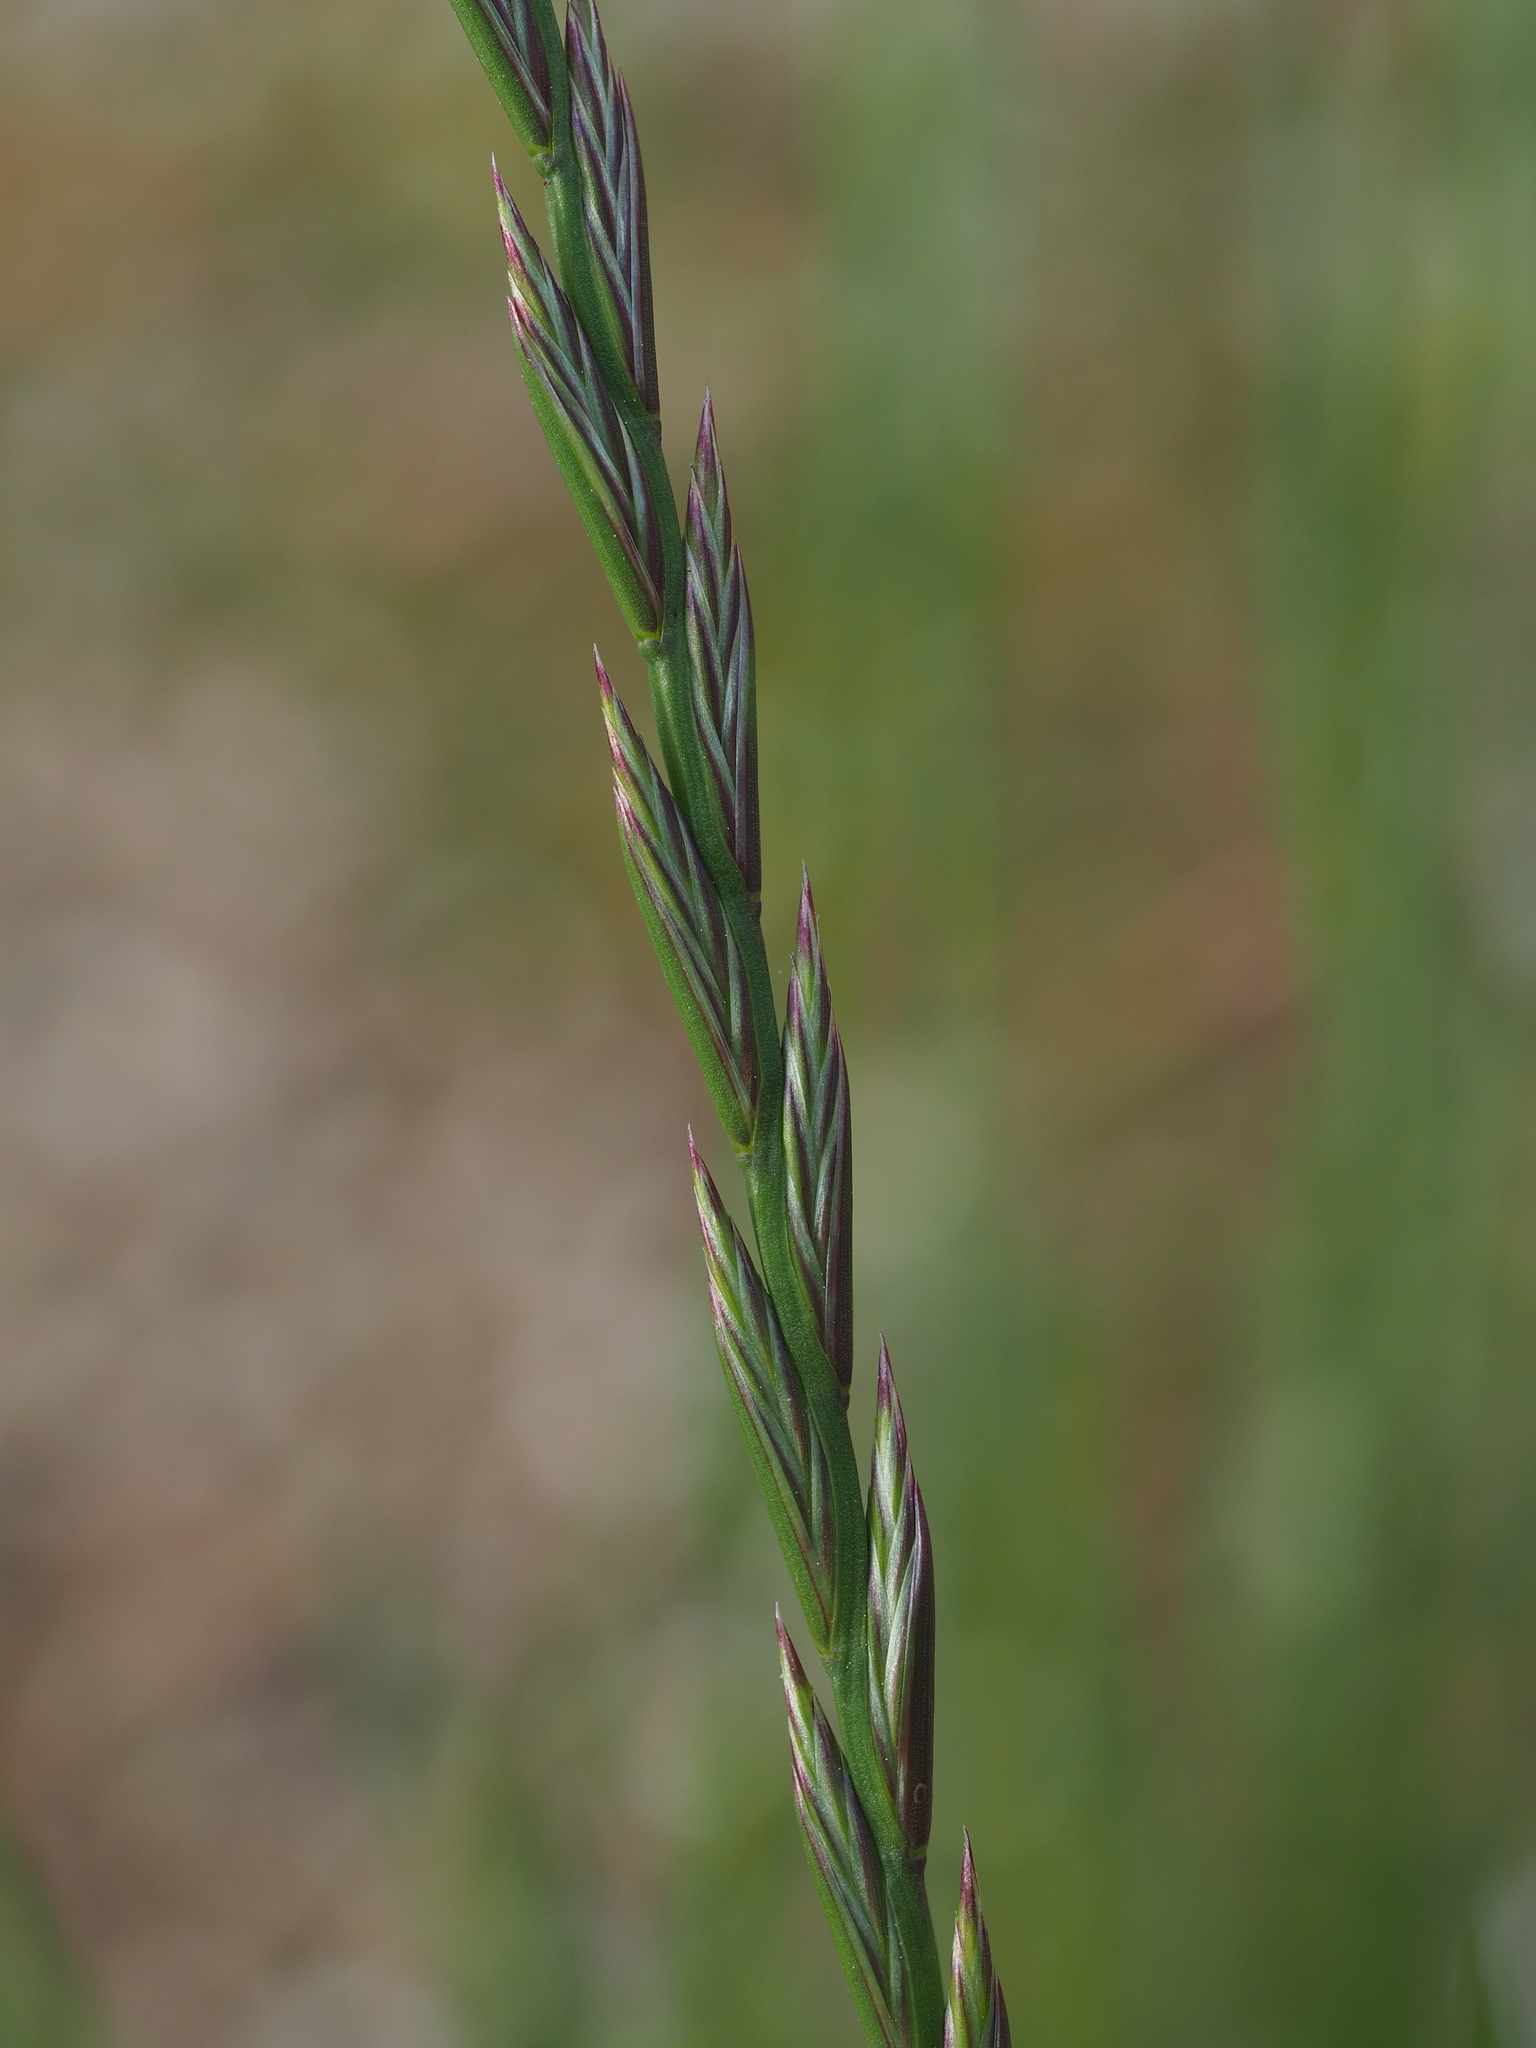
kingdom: Plantae
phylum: Tracheophyta
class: Liliopsida
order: Poales
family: Poaceae
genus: Lolium
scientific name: Lolium perenne
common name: Perennial ryegrass
